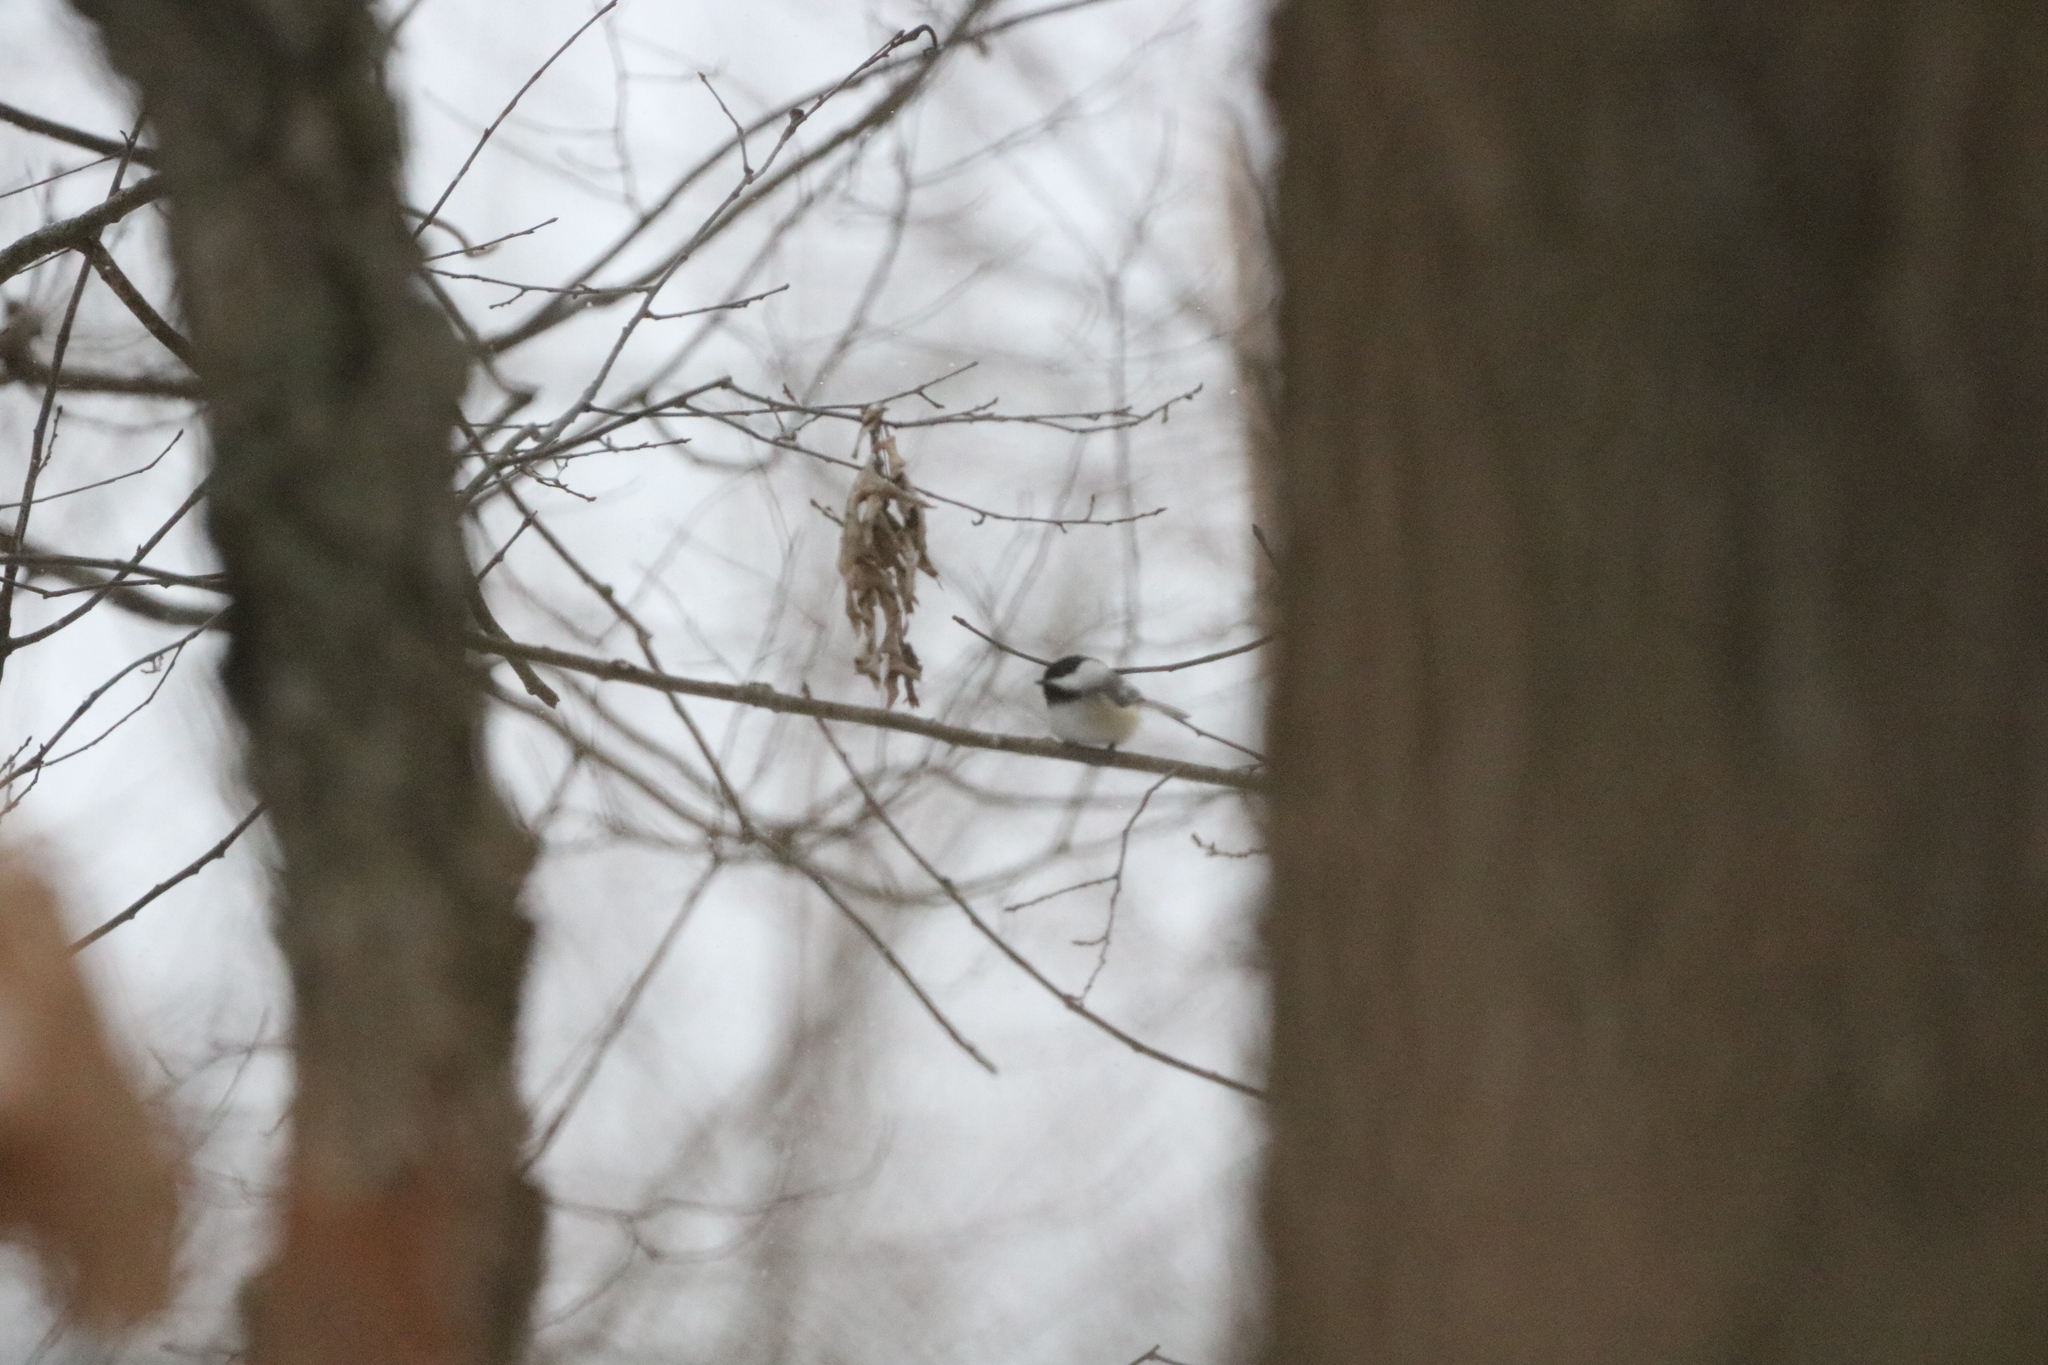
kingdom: Animalia
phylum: Chordata
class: Aves
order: Passeriformes
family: Paridae
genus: Poecile
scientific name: Poecile atricapillus
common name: Black-capped chickadee
